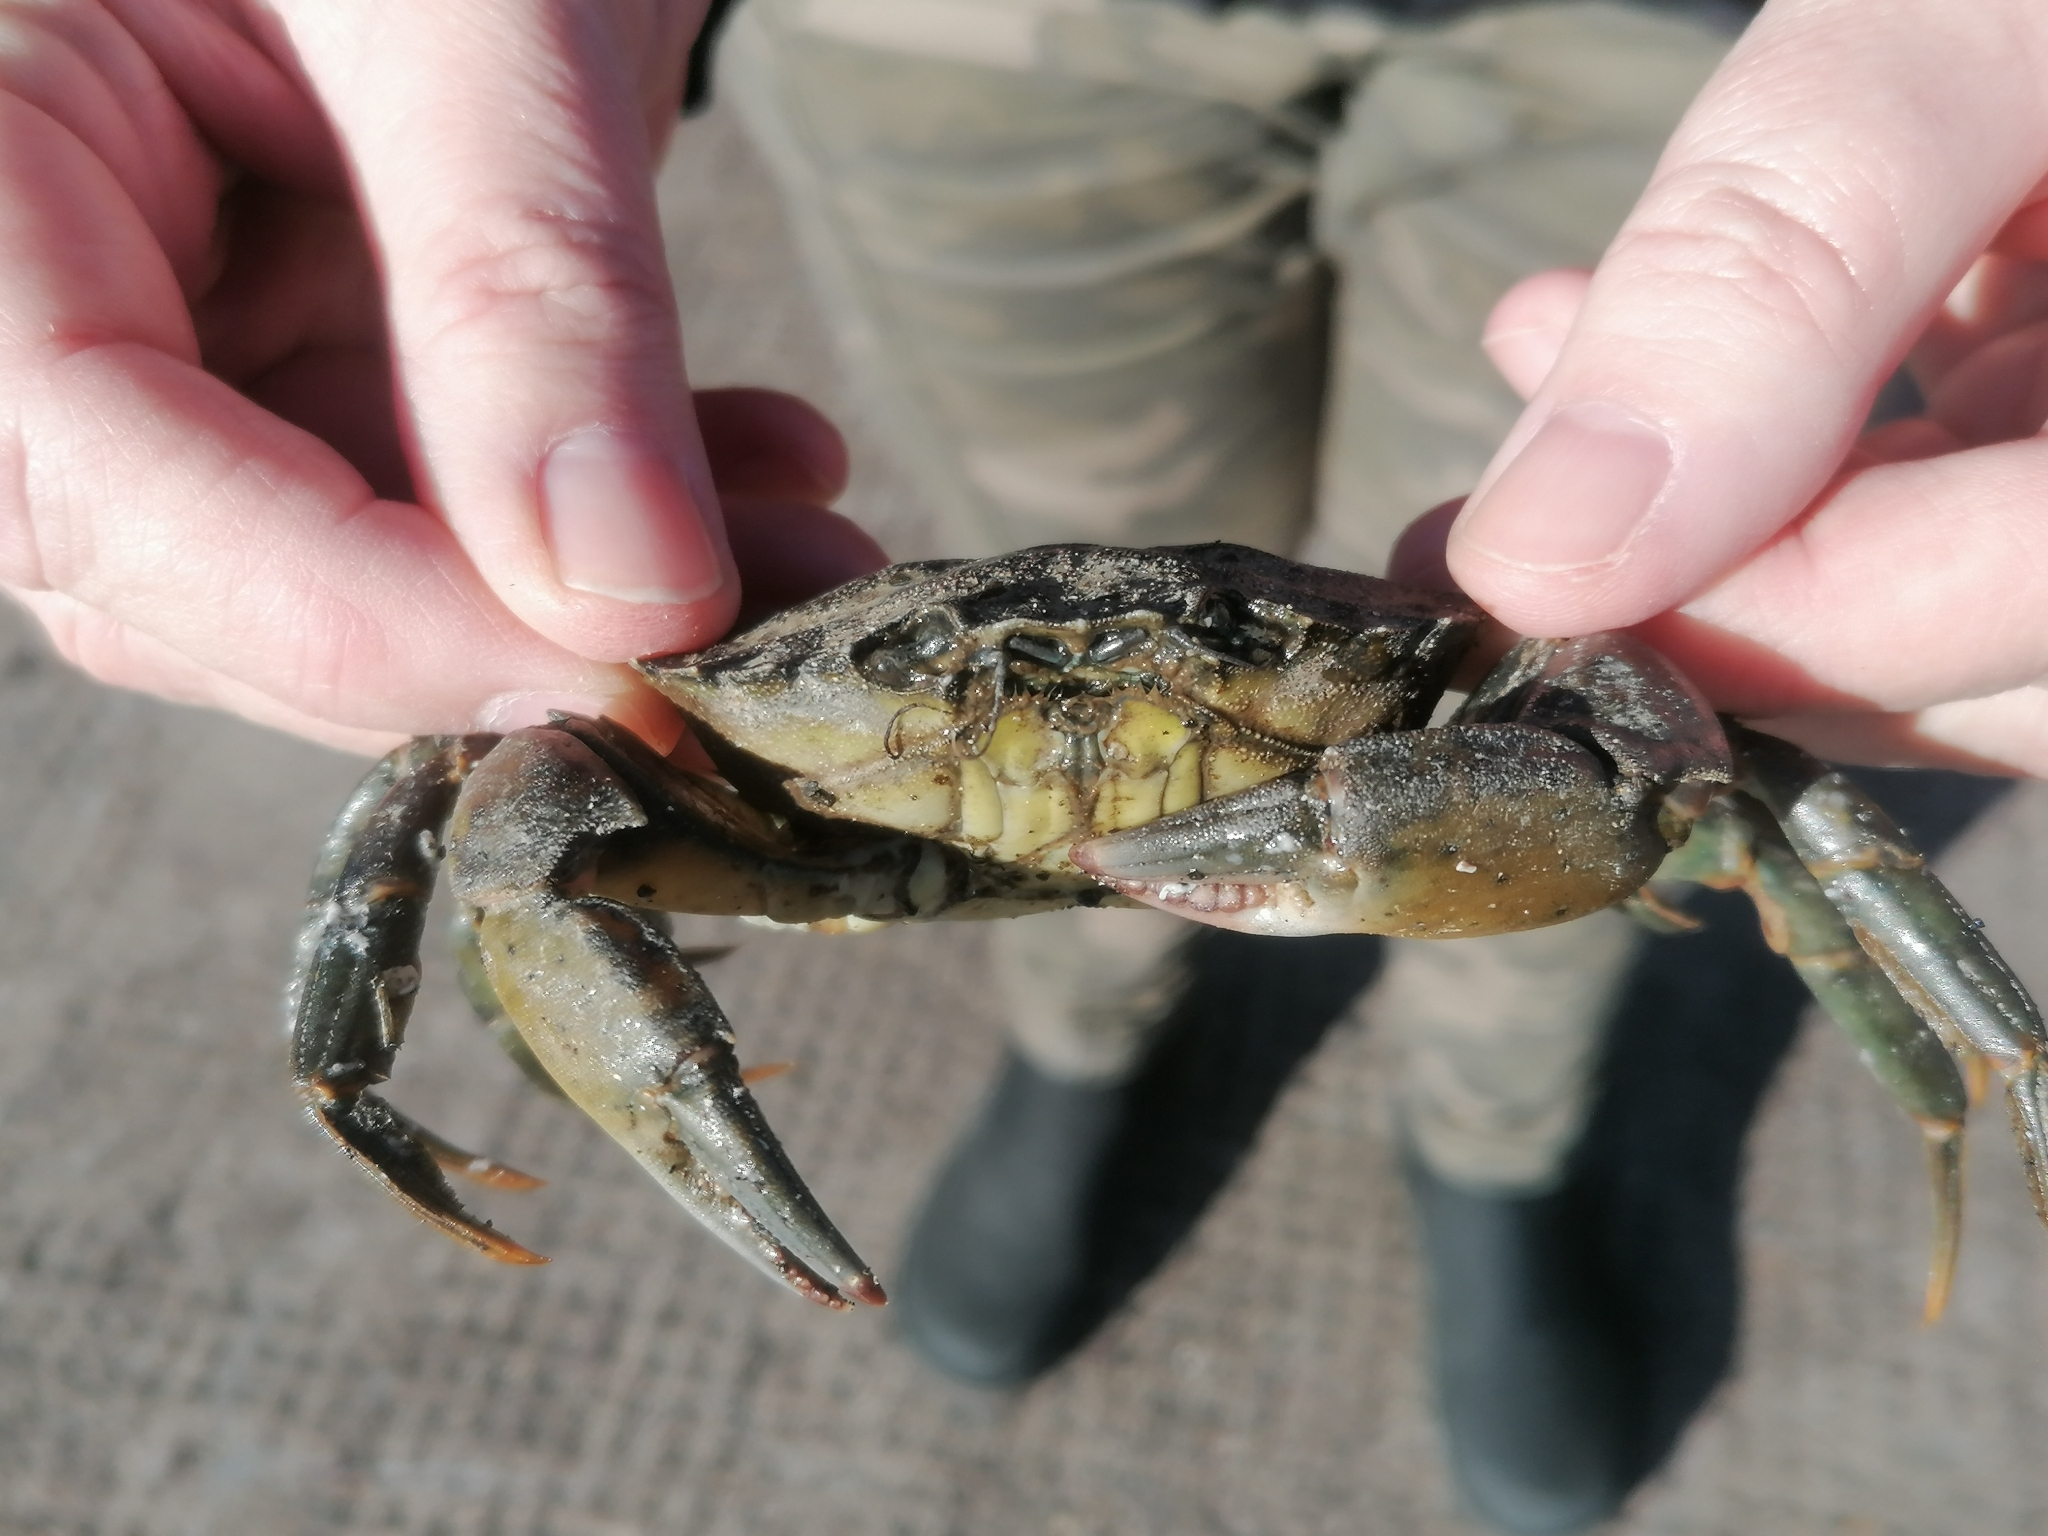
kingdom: Animalia
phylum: Arthropoda
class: Malacostraca
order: Decapoda
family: Carcinidae
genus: Carcinus
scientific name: Carcinus maenas
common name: European green crab
